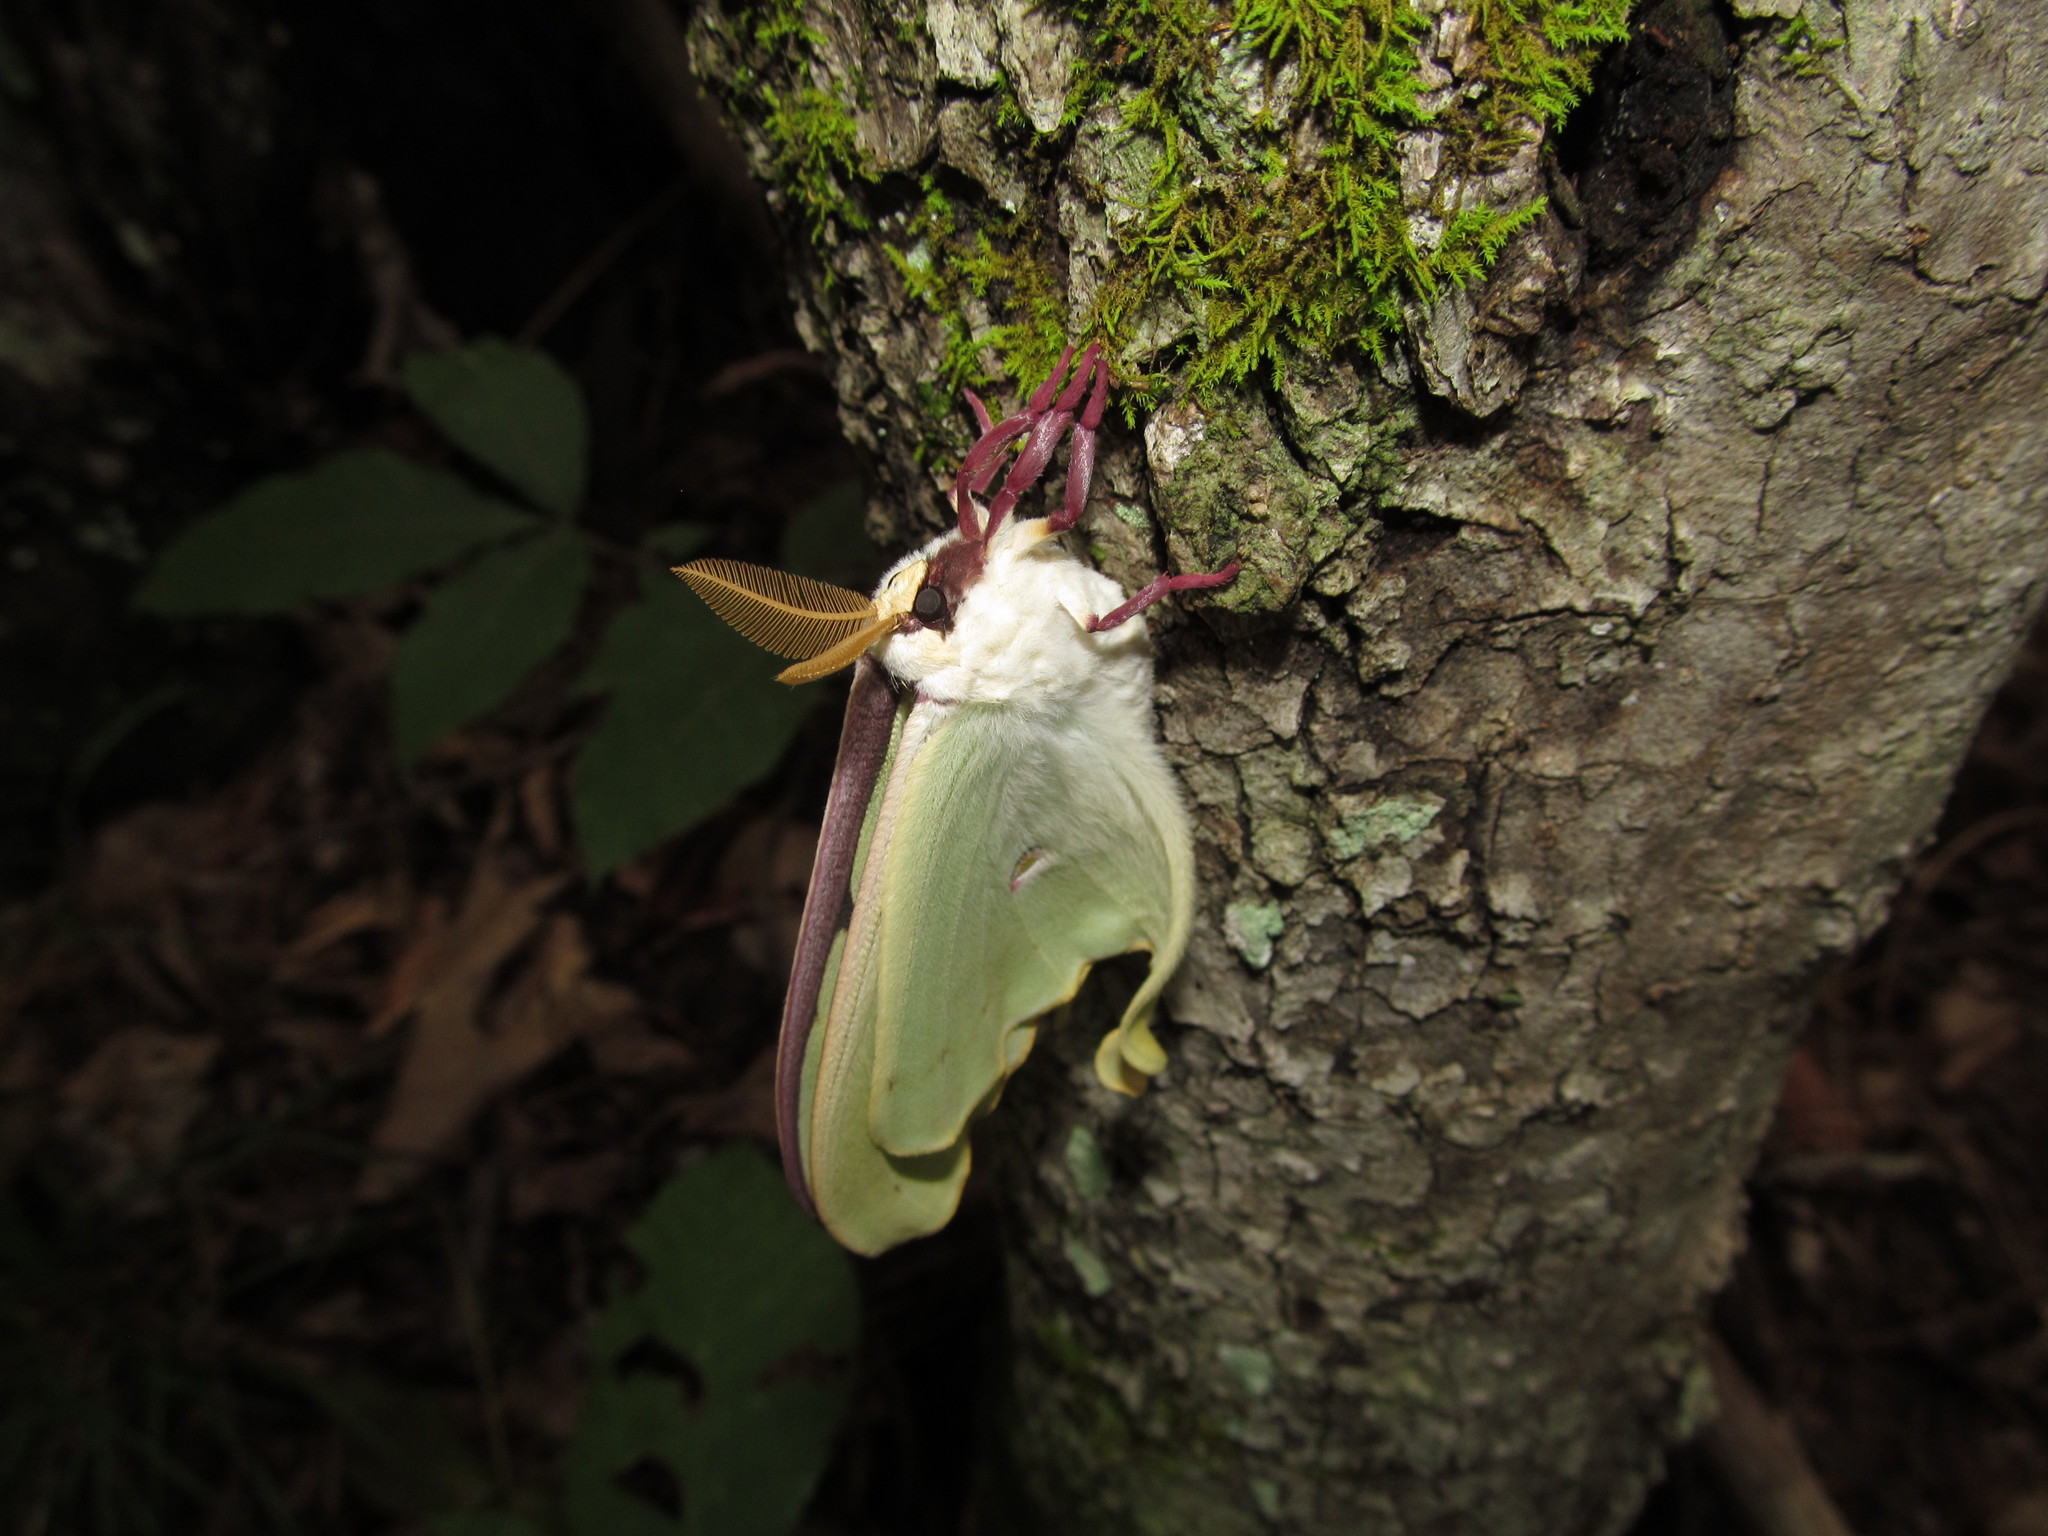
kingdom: Animalia
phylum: Arthropoda
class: Insecta
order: Lepidoptera
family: Saturniidae
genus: Actias
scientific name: Actias luna
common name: Luna moth
